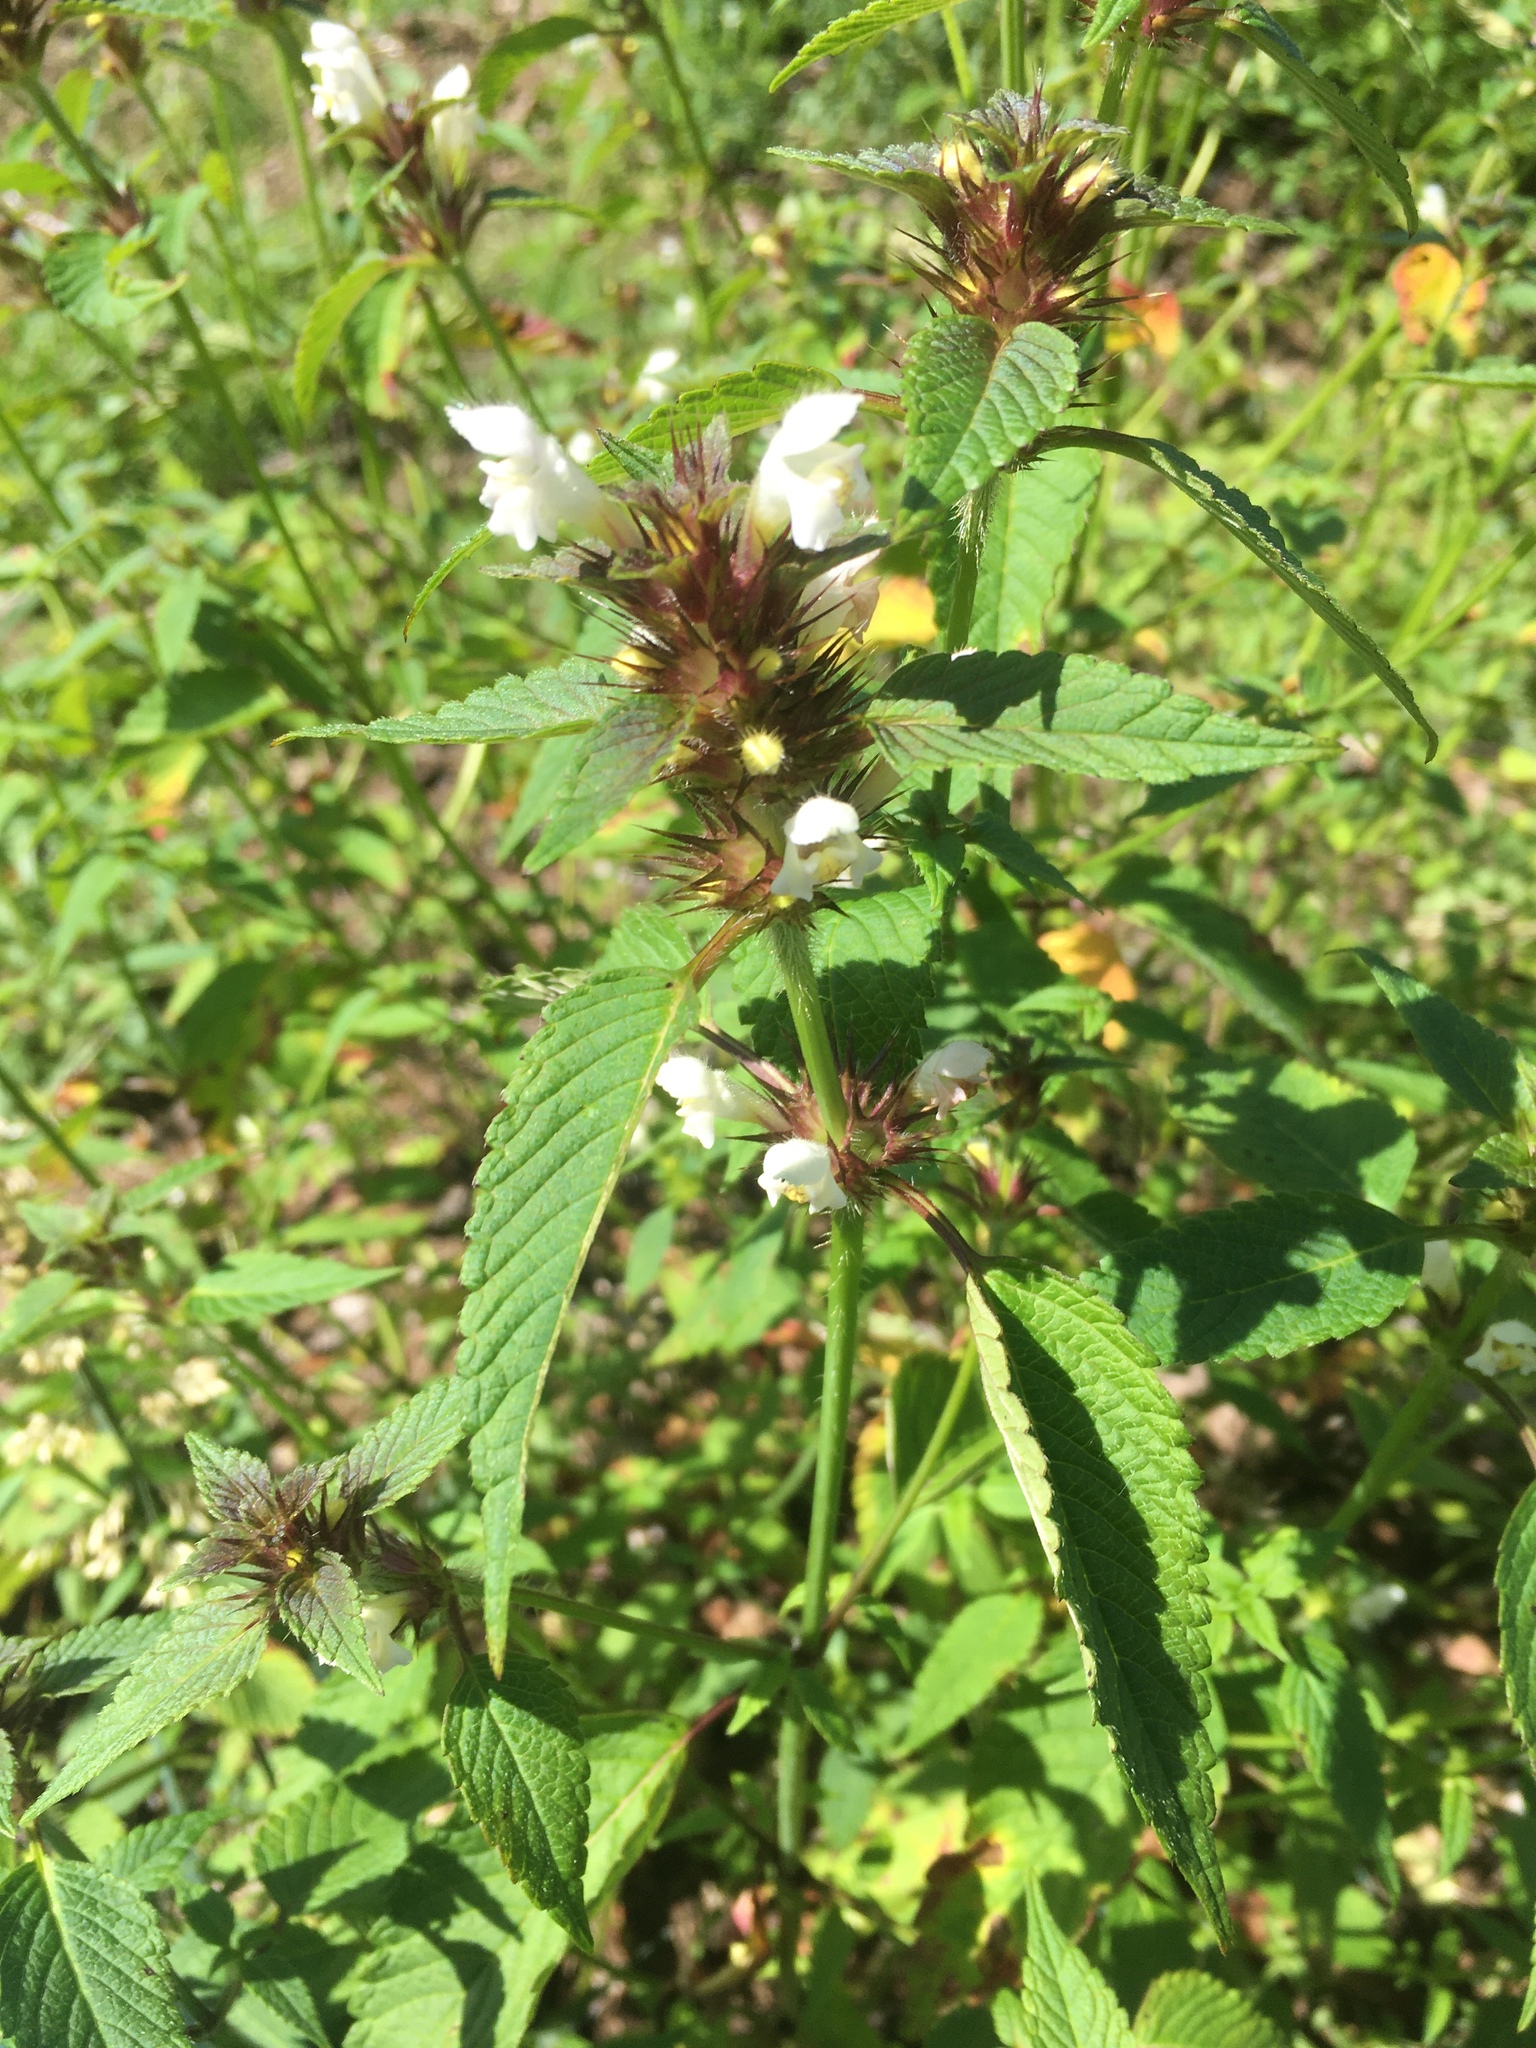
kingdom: Plantae
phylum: Tracheophyta
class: Magnoliopsida
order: Lamiales
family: Lamiaceae
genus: Galeopsis
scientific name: Galeopsis tetrahit
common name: Common hemp-nettle
